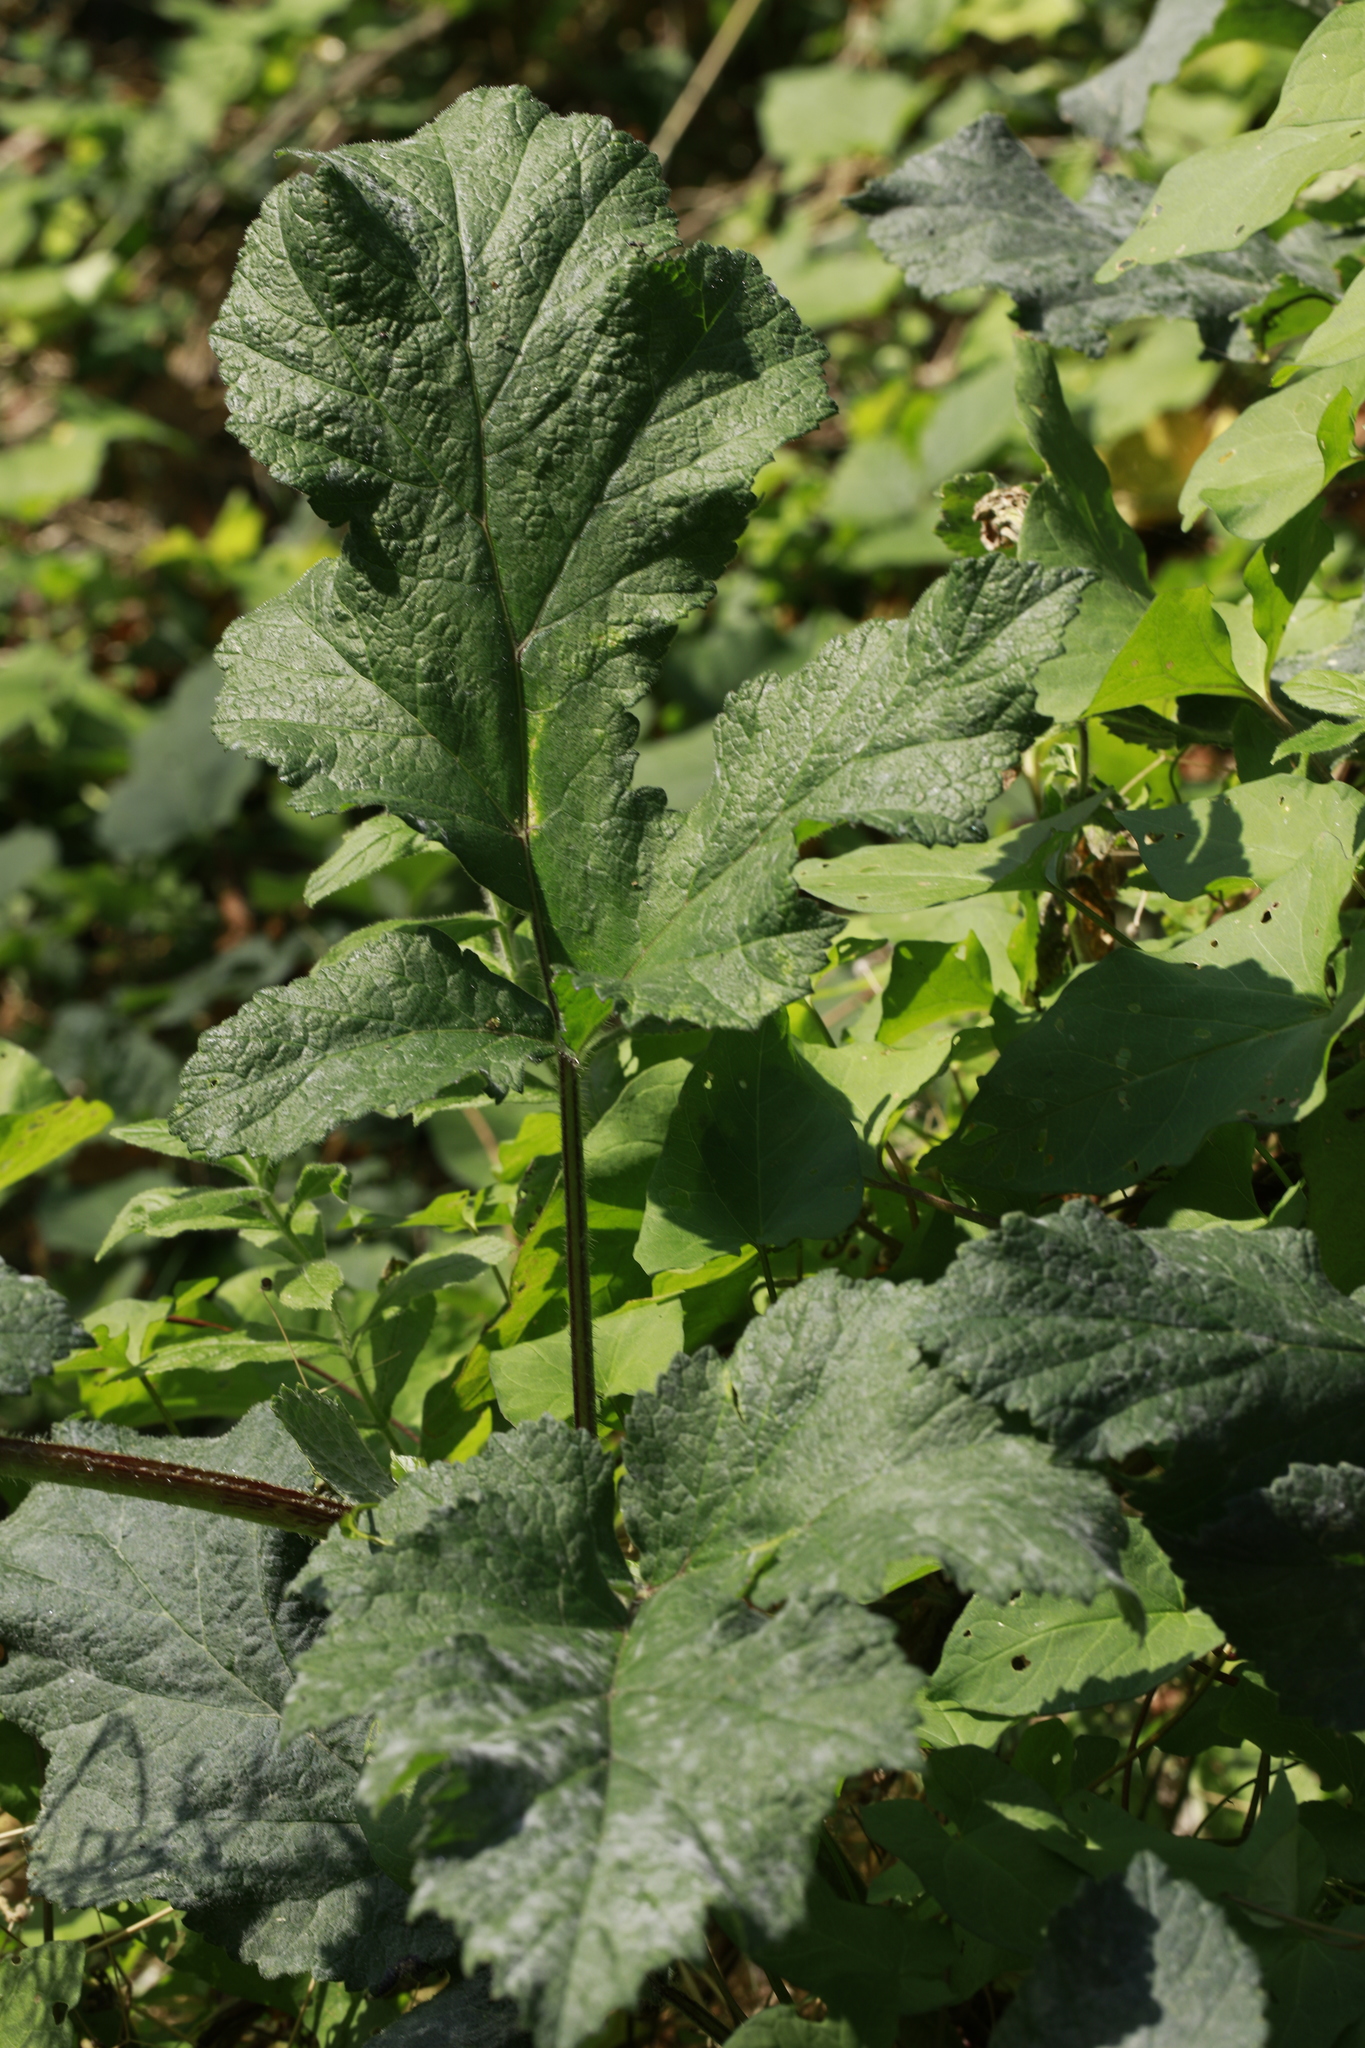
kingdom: Plantae
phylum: Tracheophyta
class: Magnoliopsida
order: Apiales
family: Apiaceae
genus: Heracleum
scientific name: Heracleum sphondylium
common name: Hogweed
